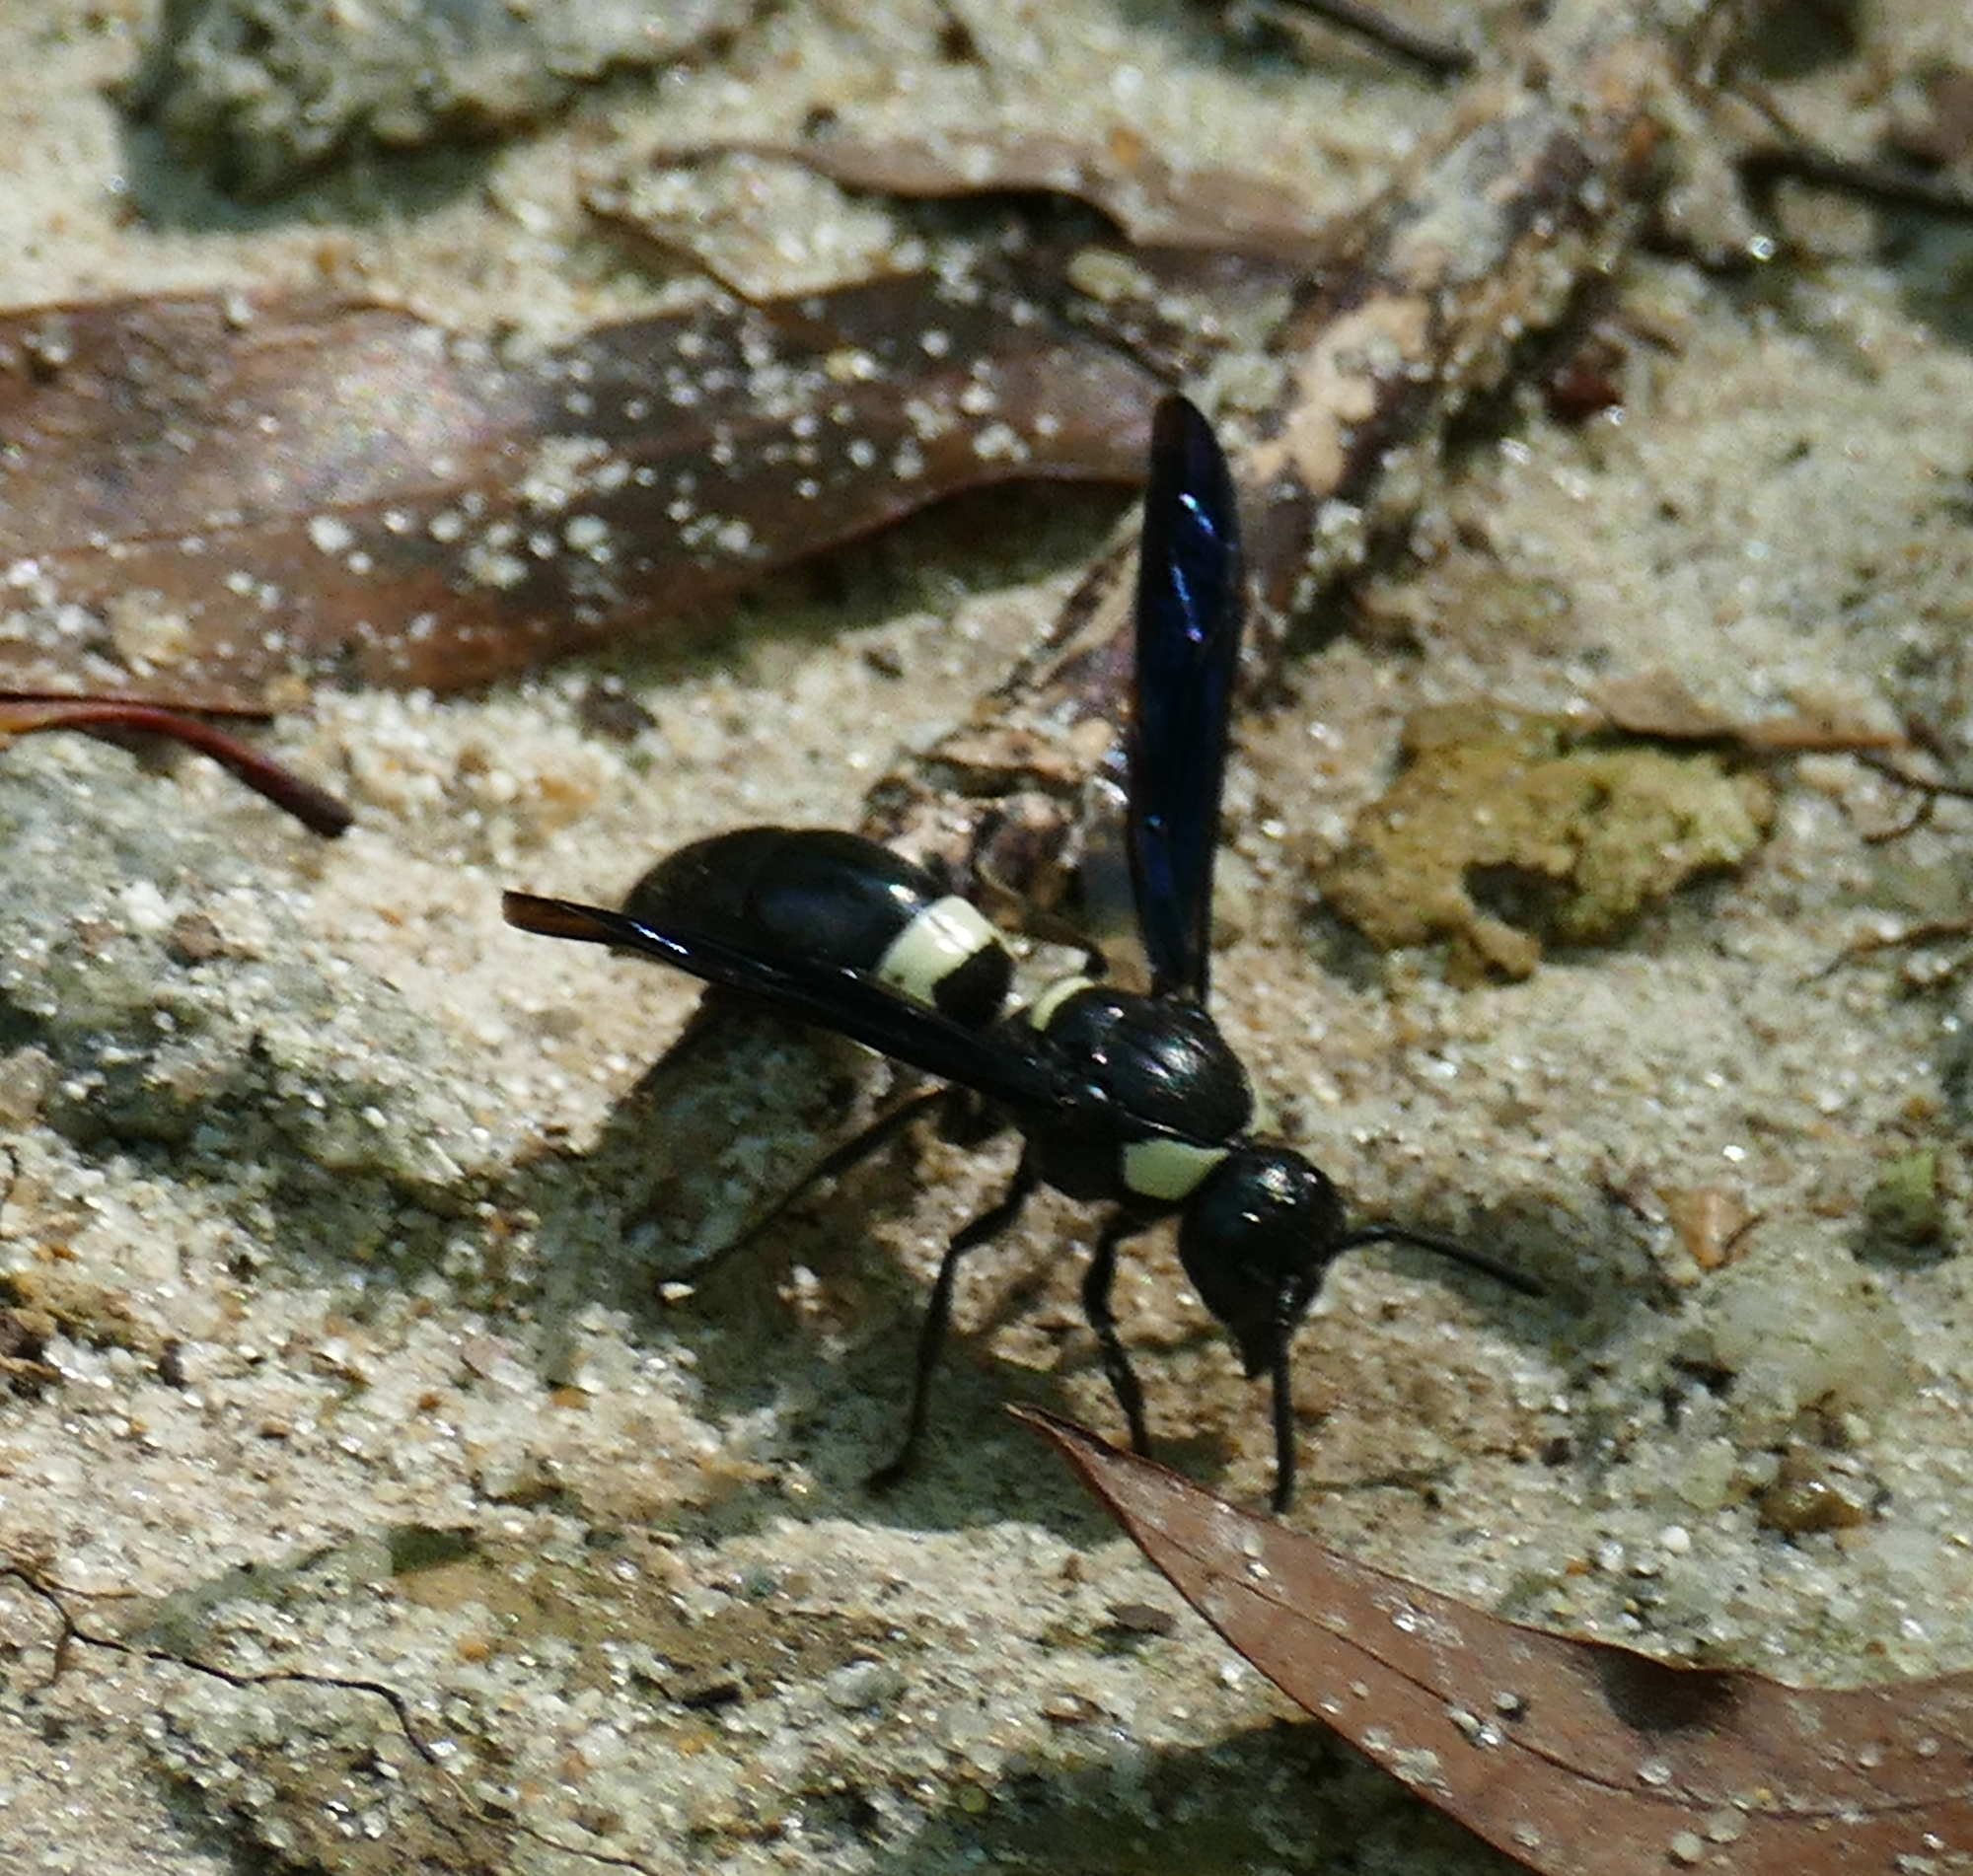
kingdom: Animalia
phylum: Arthropoda
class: Insecta
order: Hymenoptera
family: Eumenidae
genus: Monobia
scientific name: Monobia quadridens
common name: Four-toothed mason wasp
